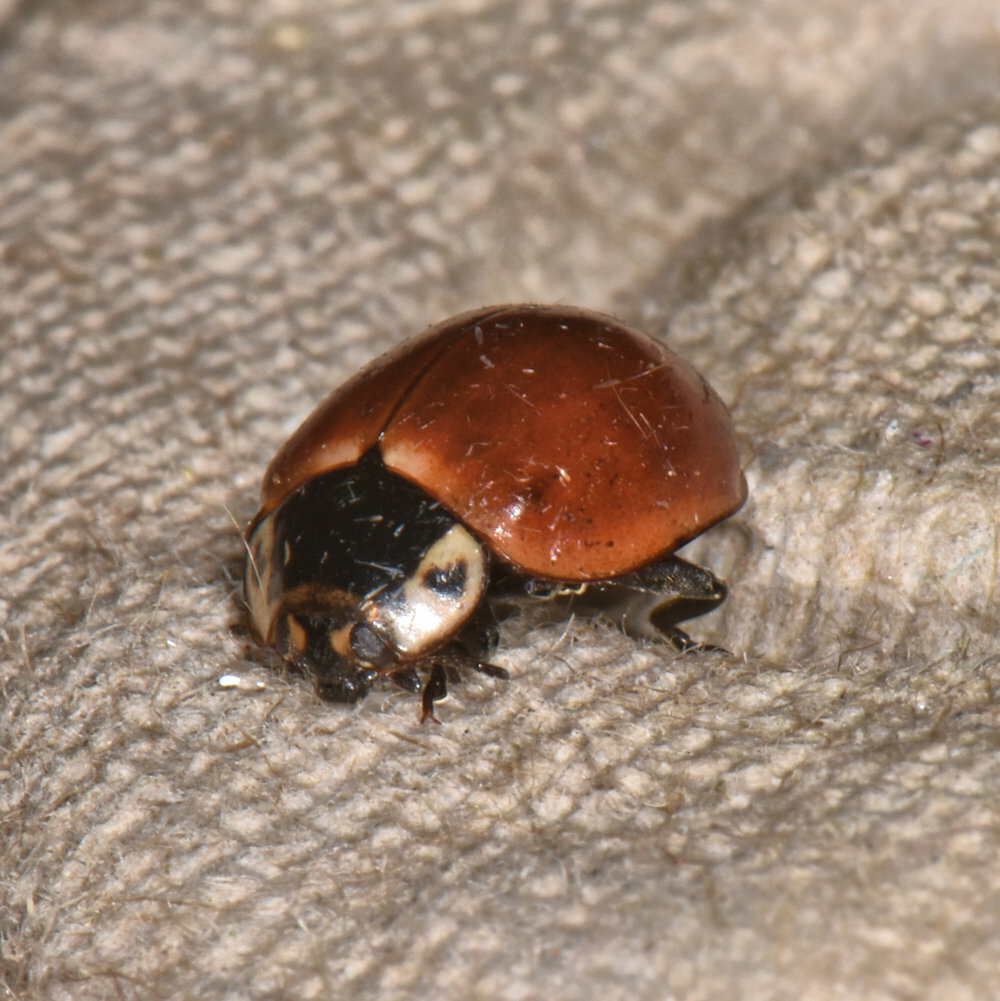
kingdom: Animalia
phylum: Arthropoda
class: Insecta
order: Coleoptera
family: Coccinellidae
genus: Myzia
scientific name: Myzia pullata
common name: Streaked lady beetle
